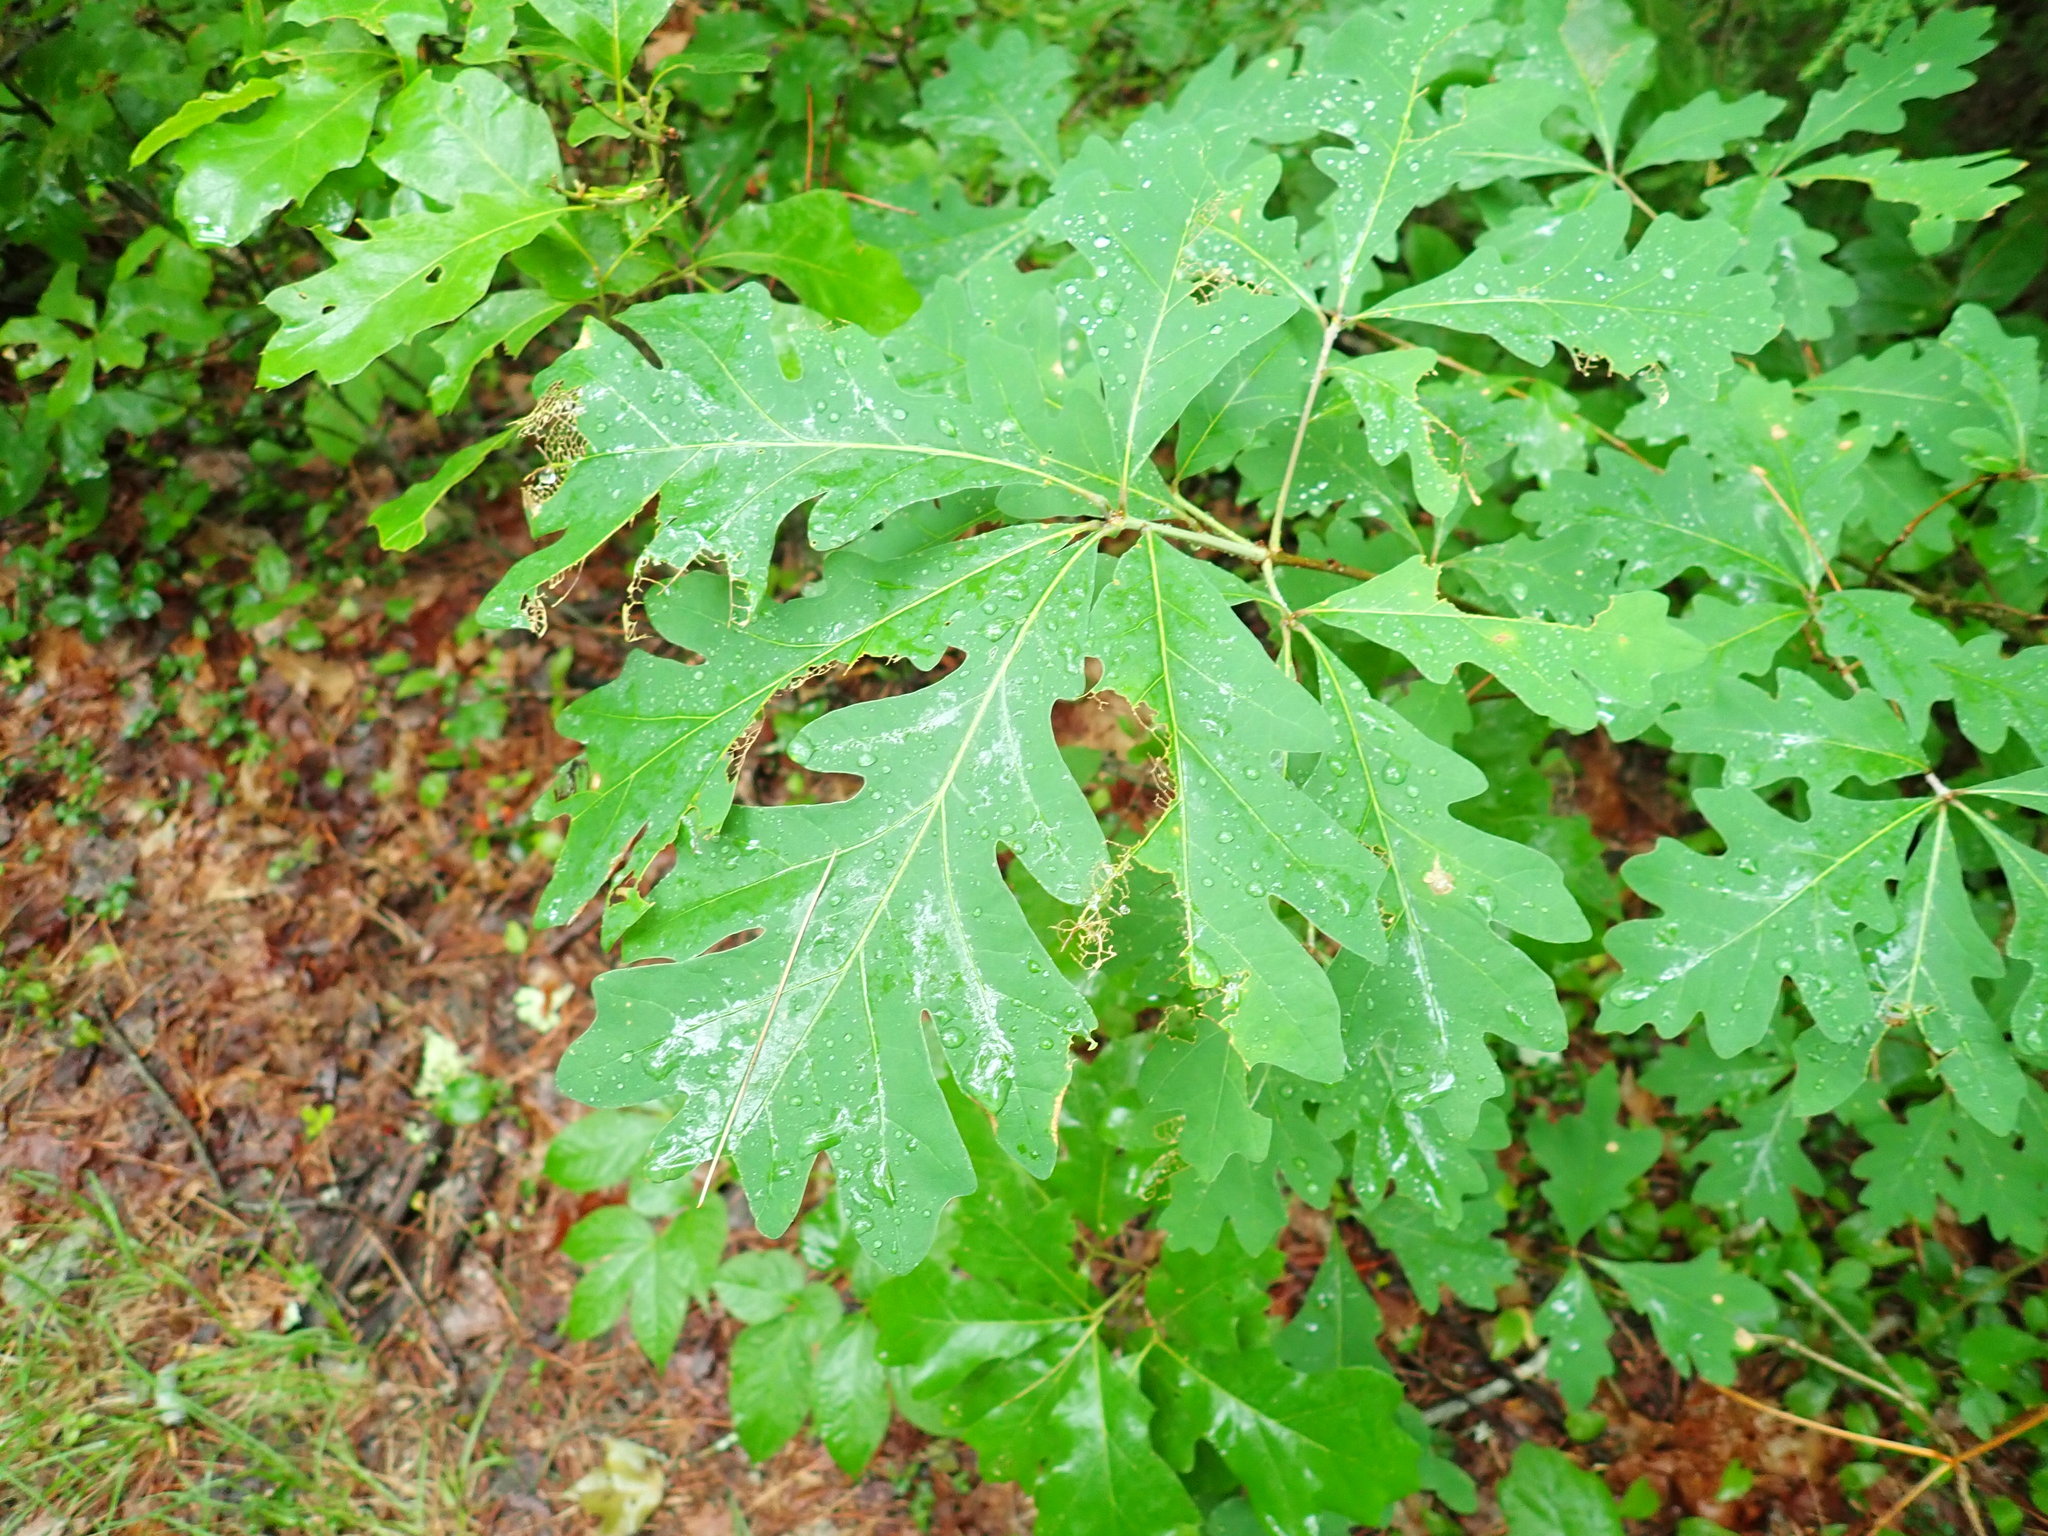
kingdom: Plantae
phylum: Tracheophyta
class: Magnoliopsida
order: Fagales
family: Fagaceae
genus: Quercus
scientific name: Quercus alba
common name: White oak
